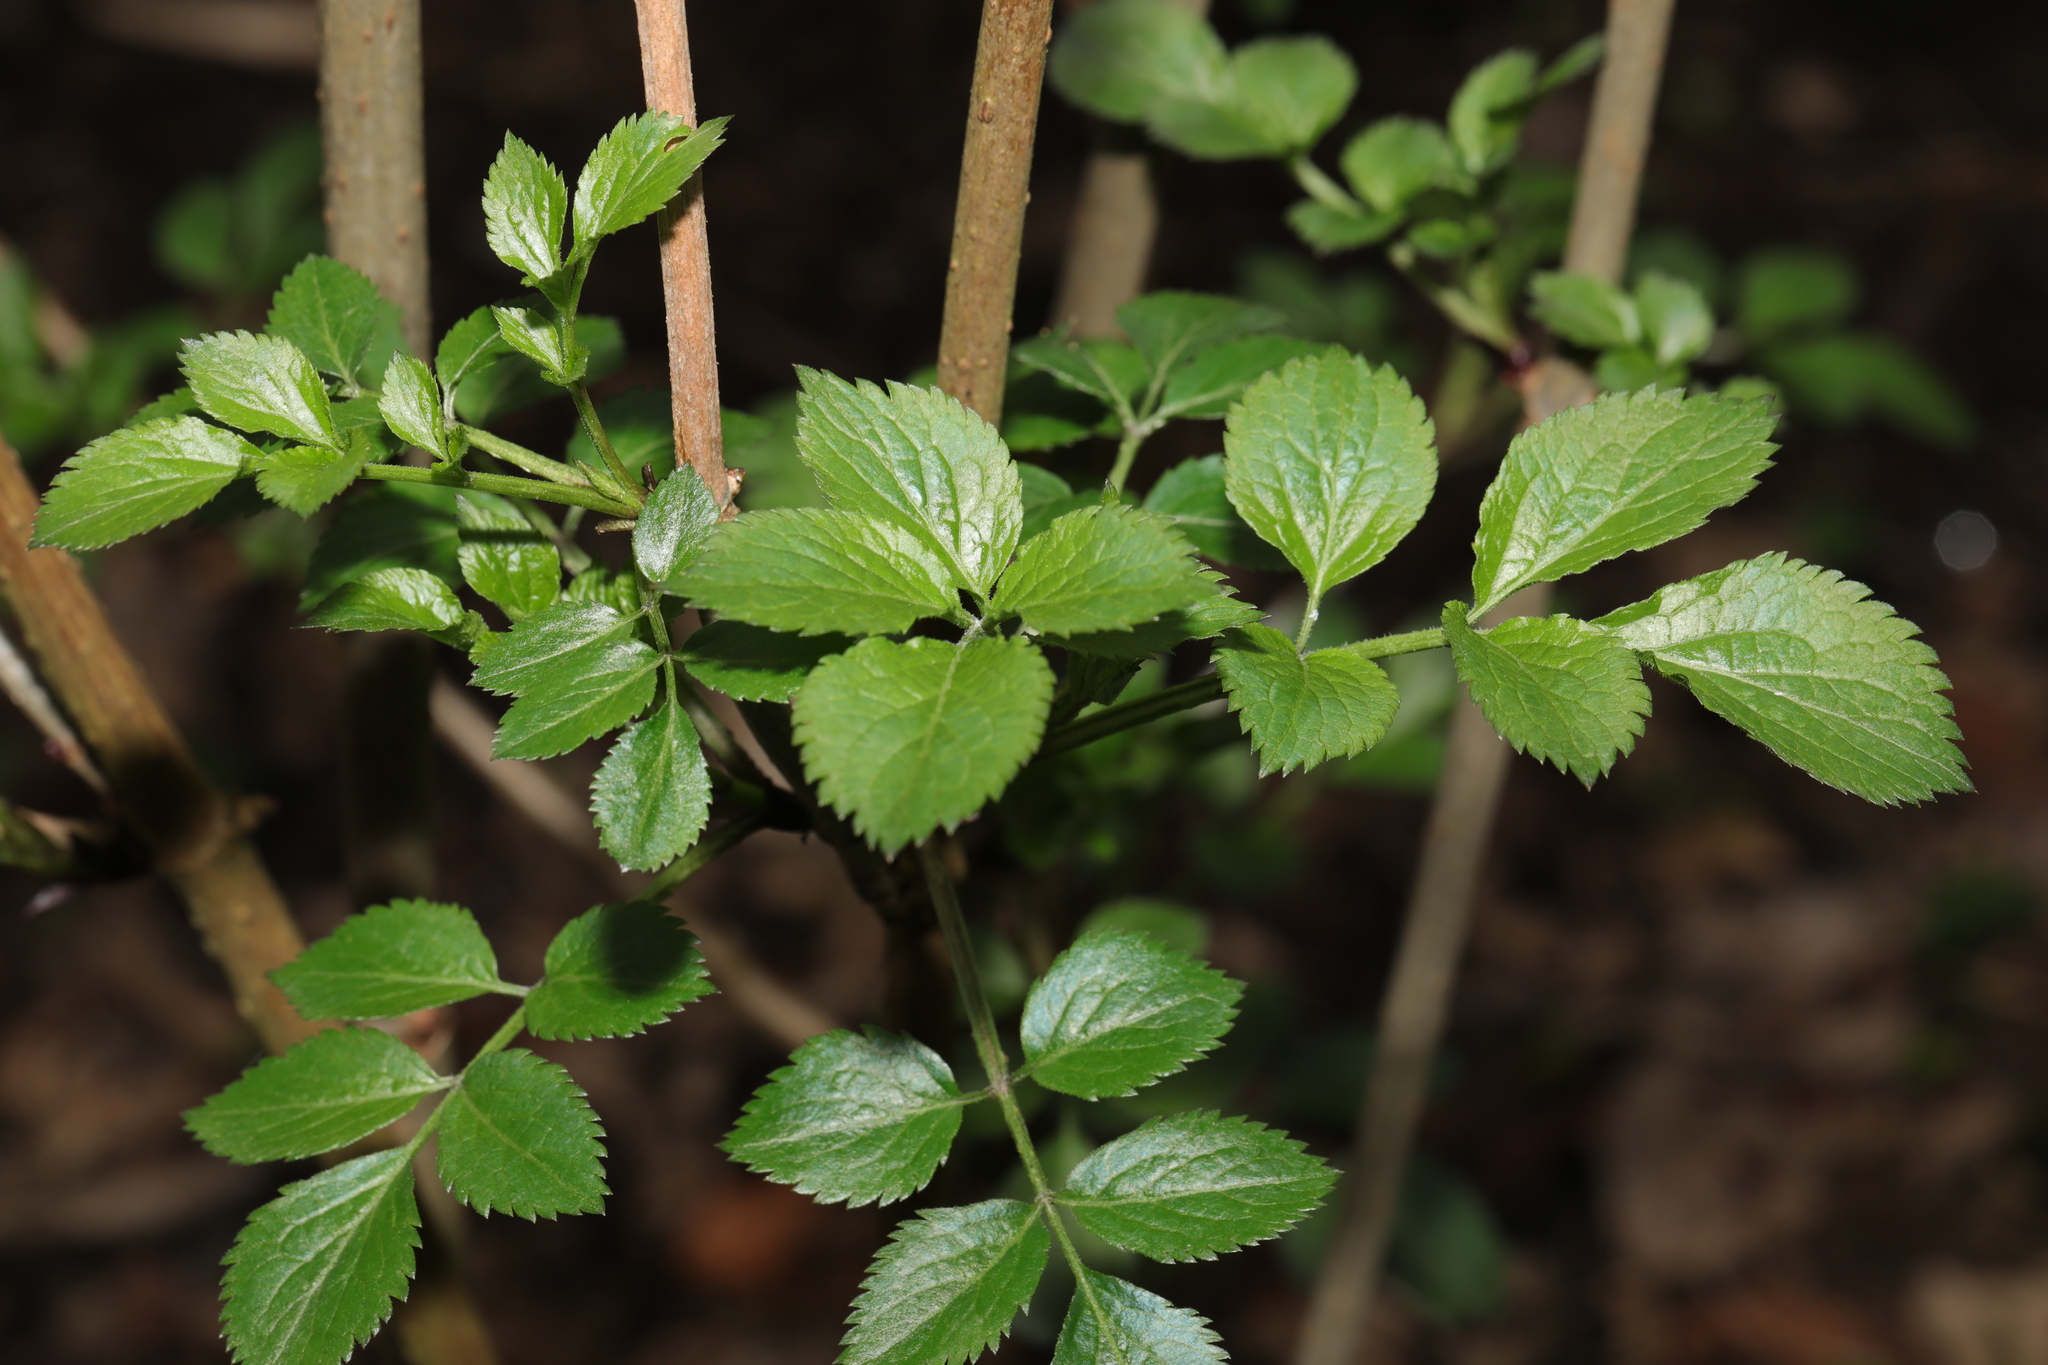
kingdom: Plantae
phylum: Tracheophyta
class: Magnoliopsida
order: Dipsacales
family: Viburnaceae
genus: Sambucus
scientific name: Sambucus nigra
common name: Elder
